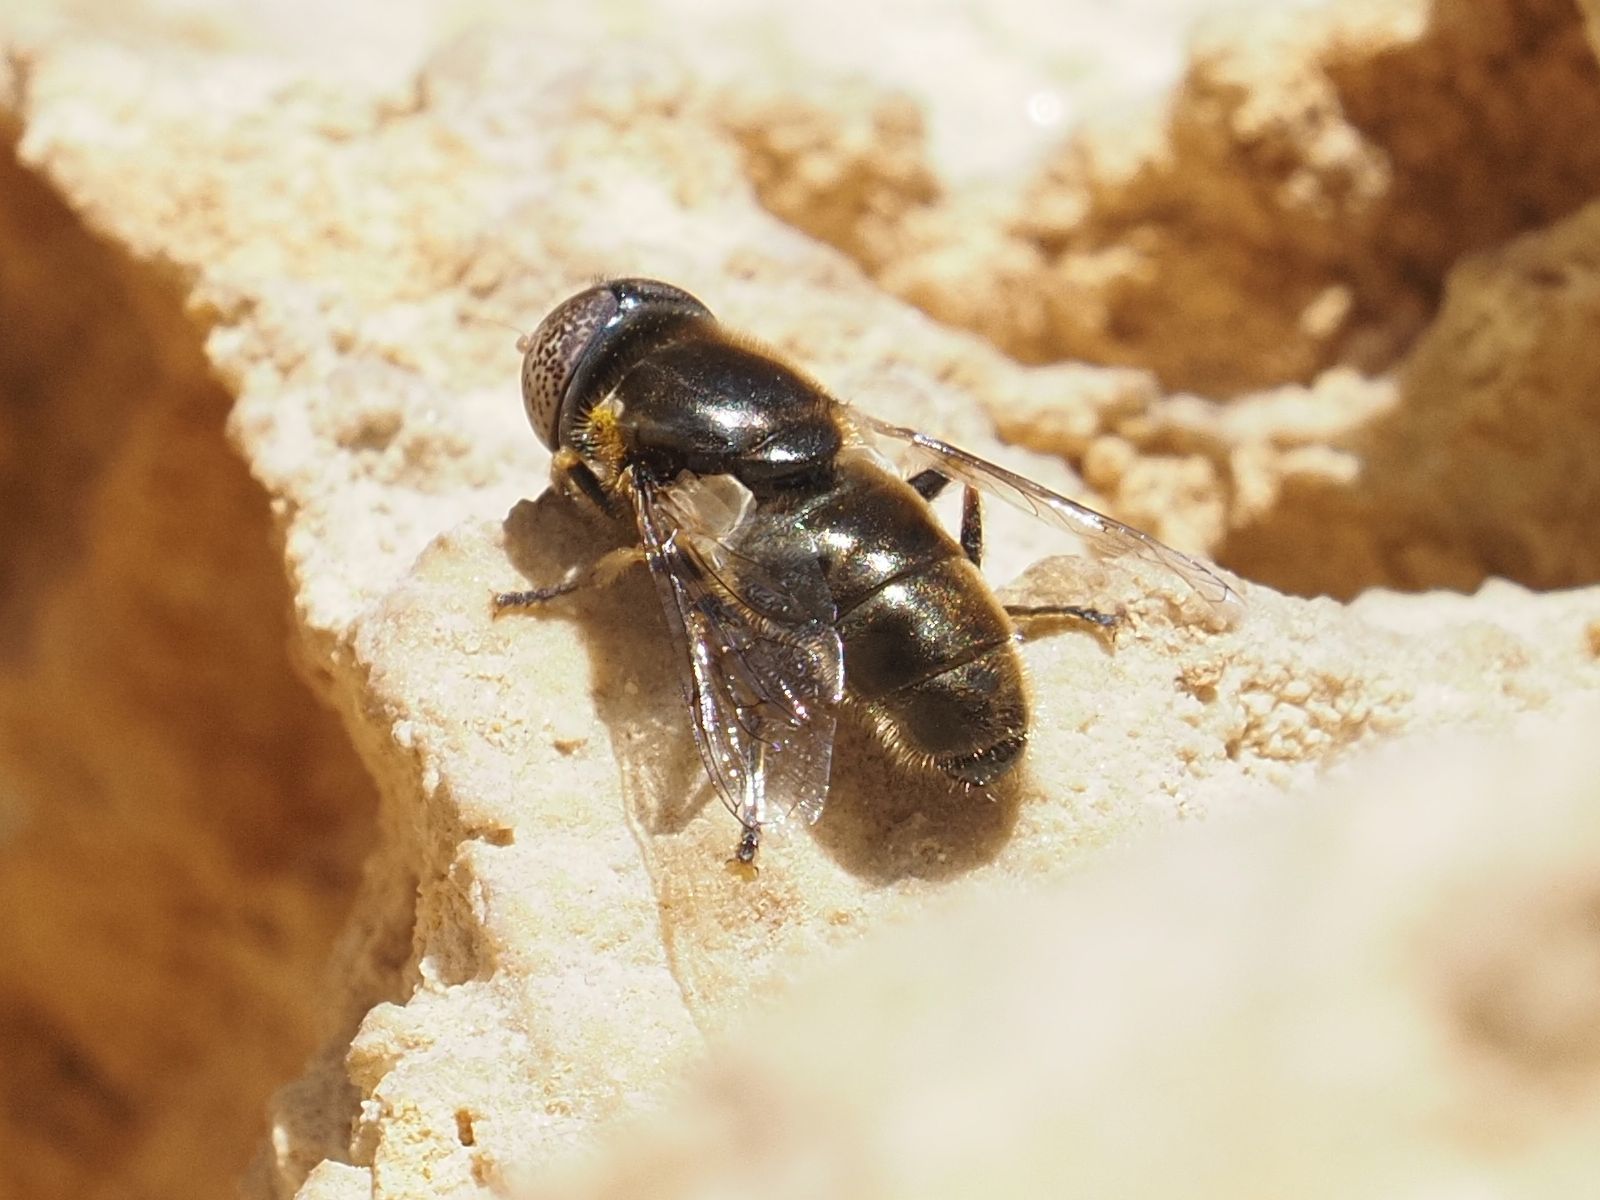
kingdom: Animalia
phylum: Arthropoda
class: Insecta
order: Diptera
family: Syrphidae
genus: Eristalinus
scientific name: Eristalinus aeneus
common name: Syrphid fly
